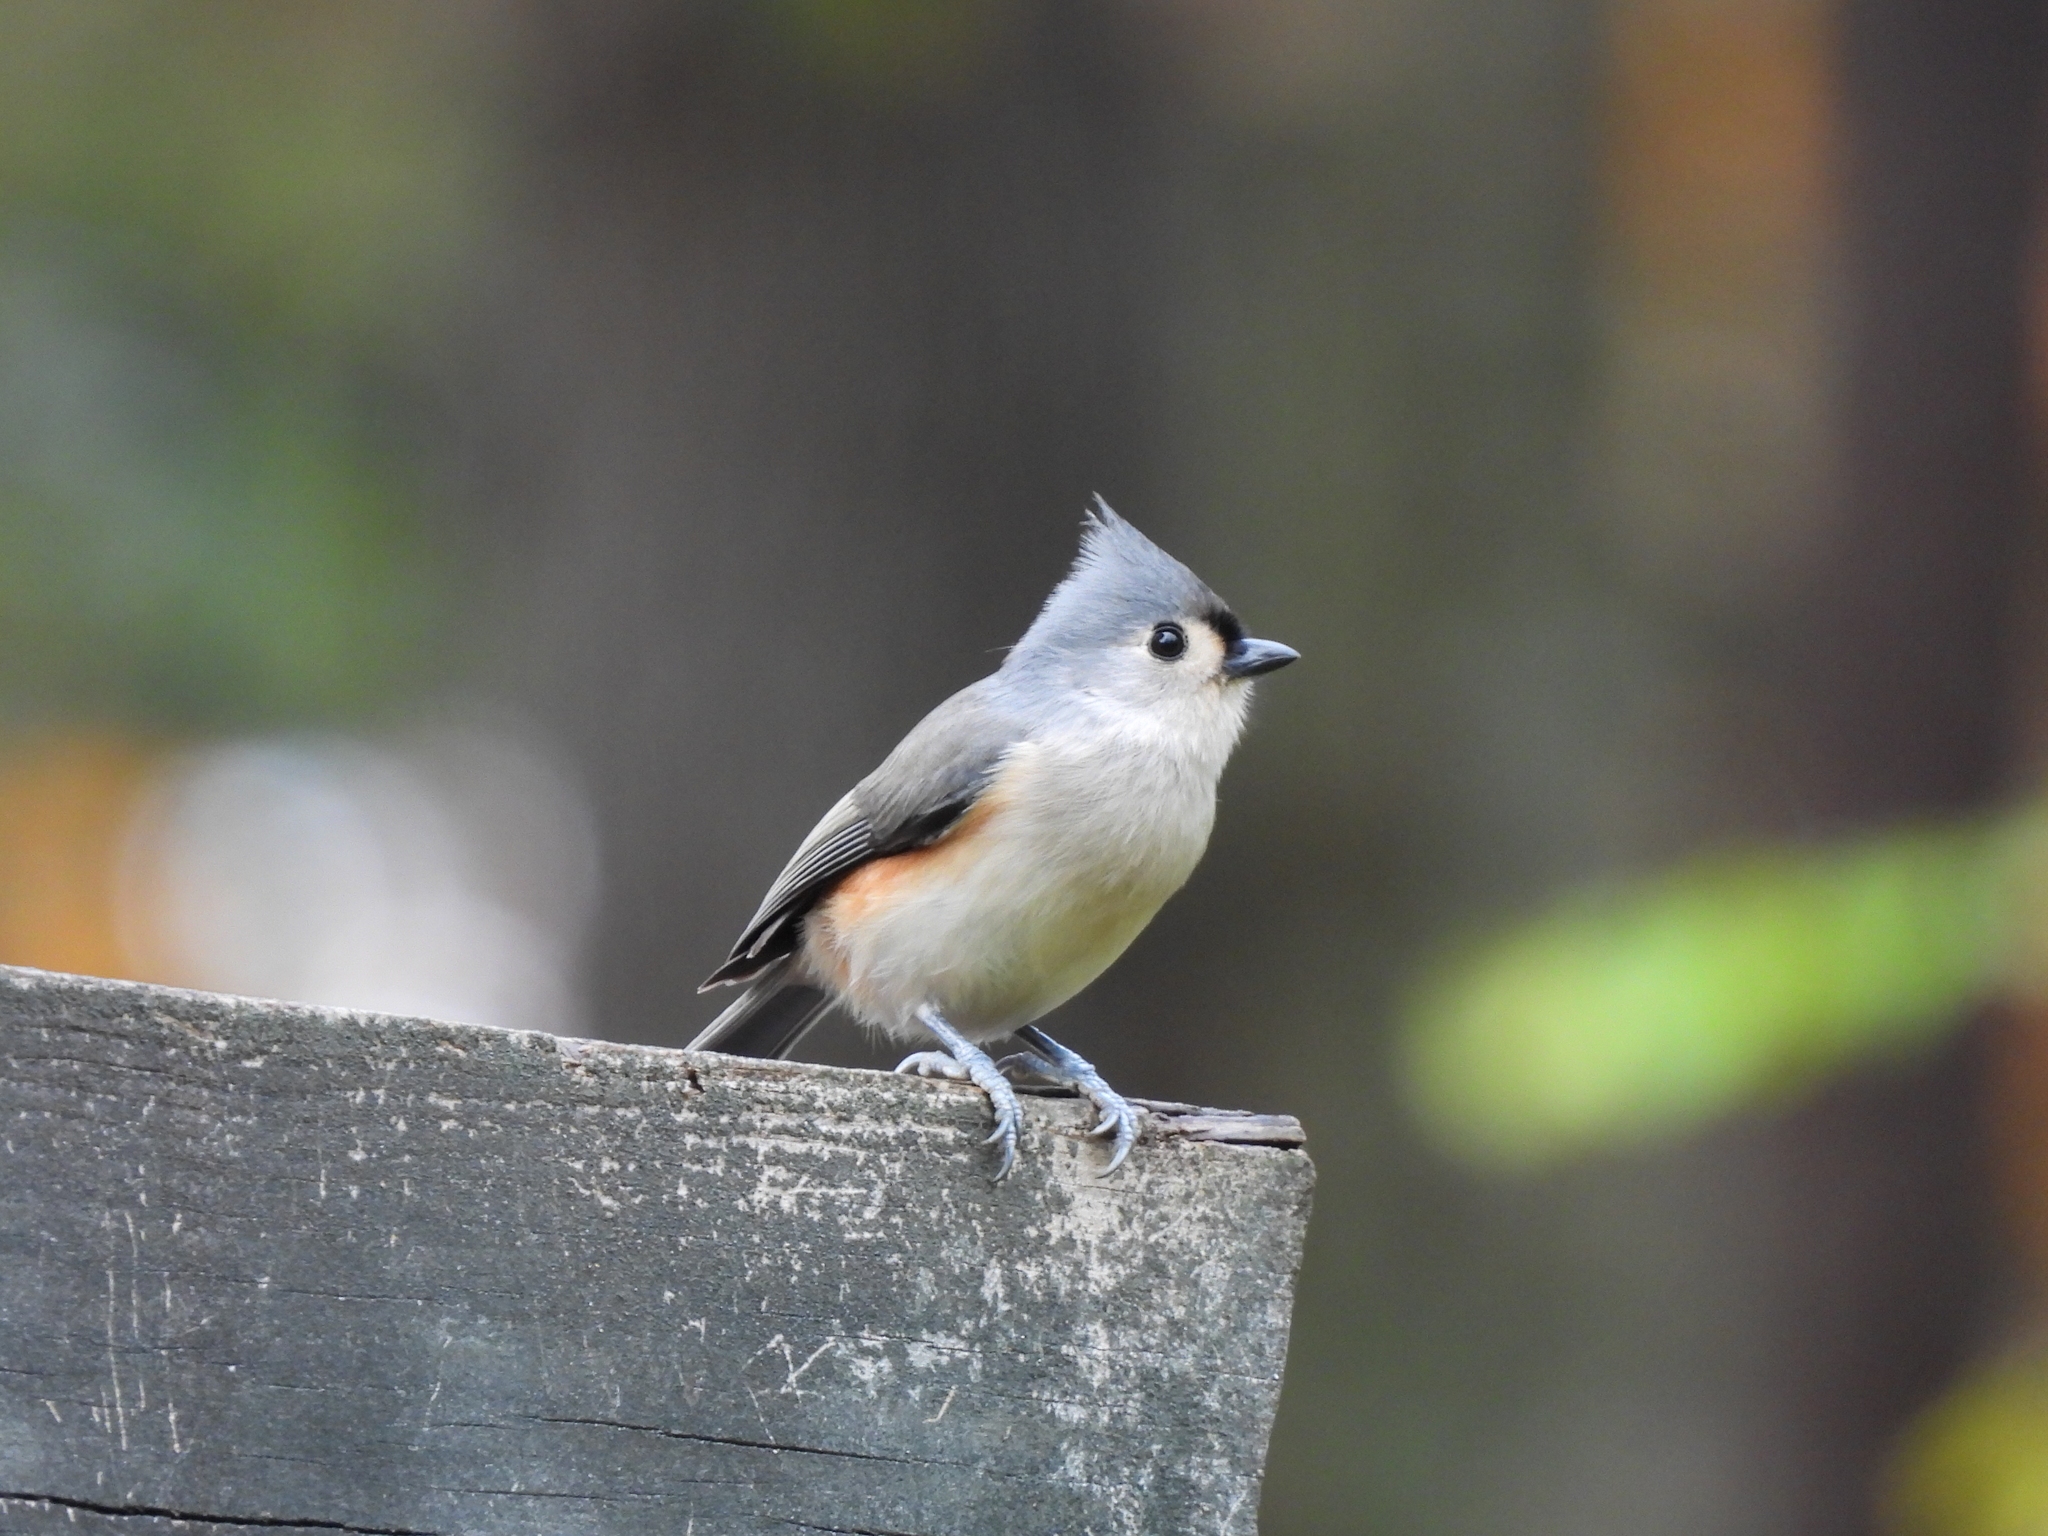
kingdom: Animalia
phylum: Chordata
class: Aves
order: Passeriformes
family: Paridae
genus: Baeolophus
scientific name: Baeolophus bicolor
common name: Tufted titmouse
